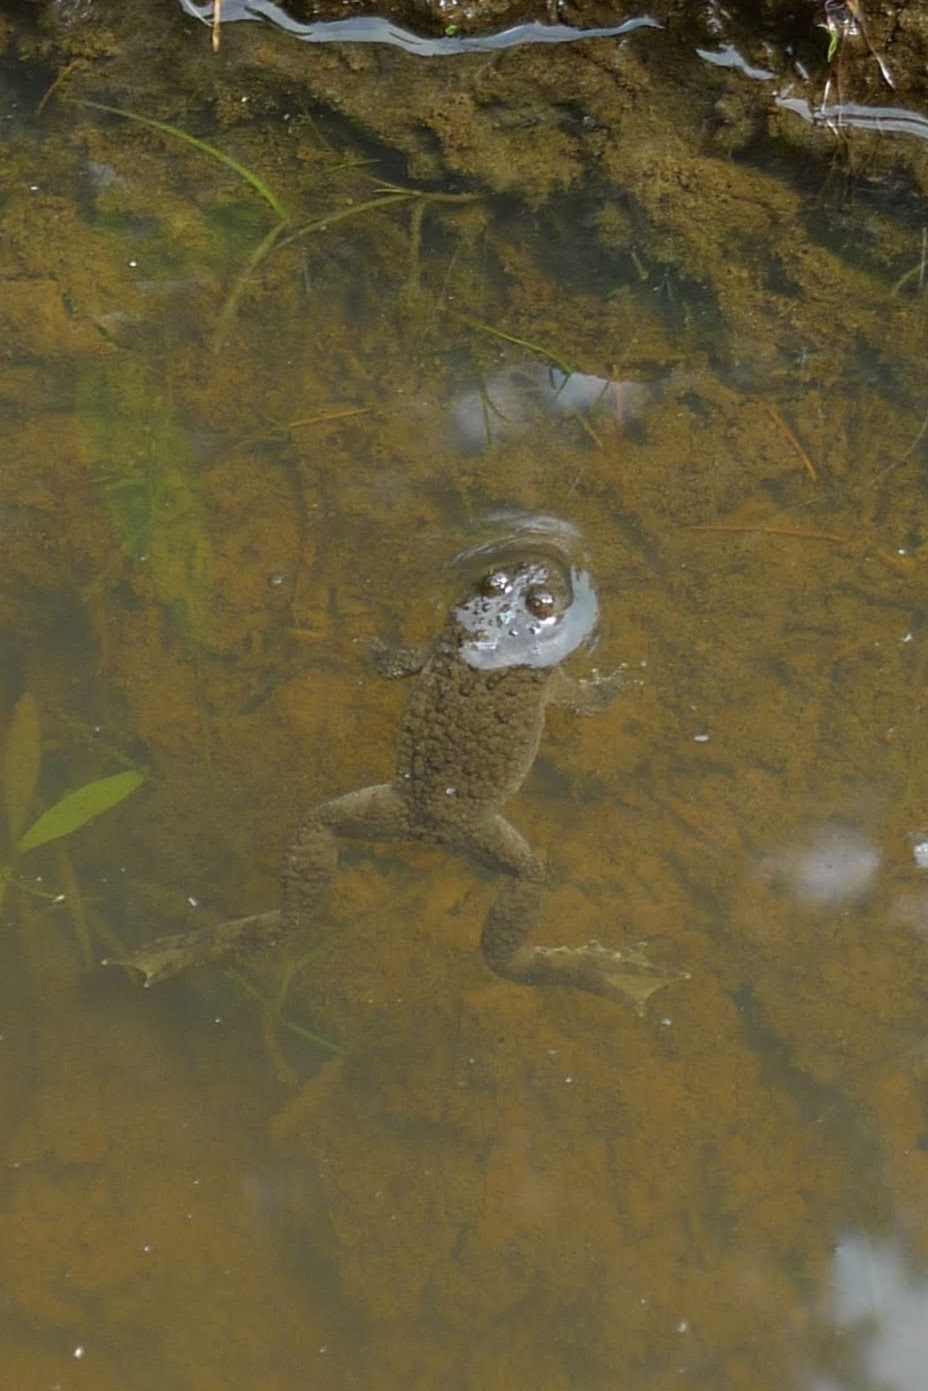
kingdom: Animalia
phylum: Chordata
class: Amphibia
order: Anura
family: Bombinatoridae
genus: Bombina
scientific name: Bombina variegata
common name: Yellow-bellied toad
